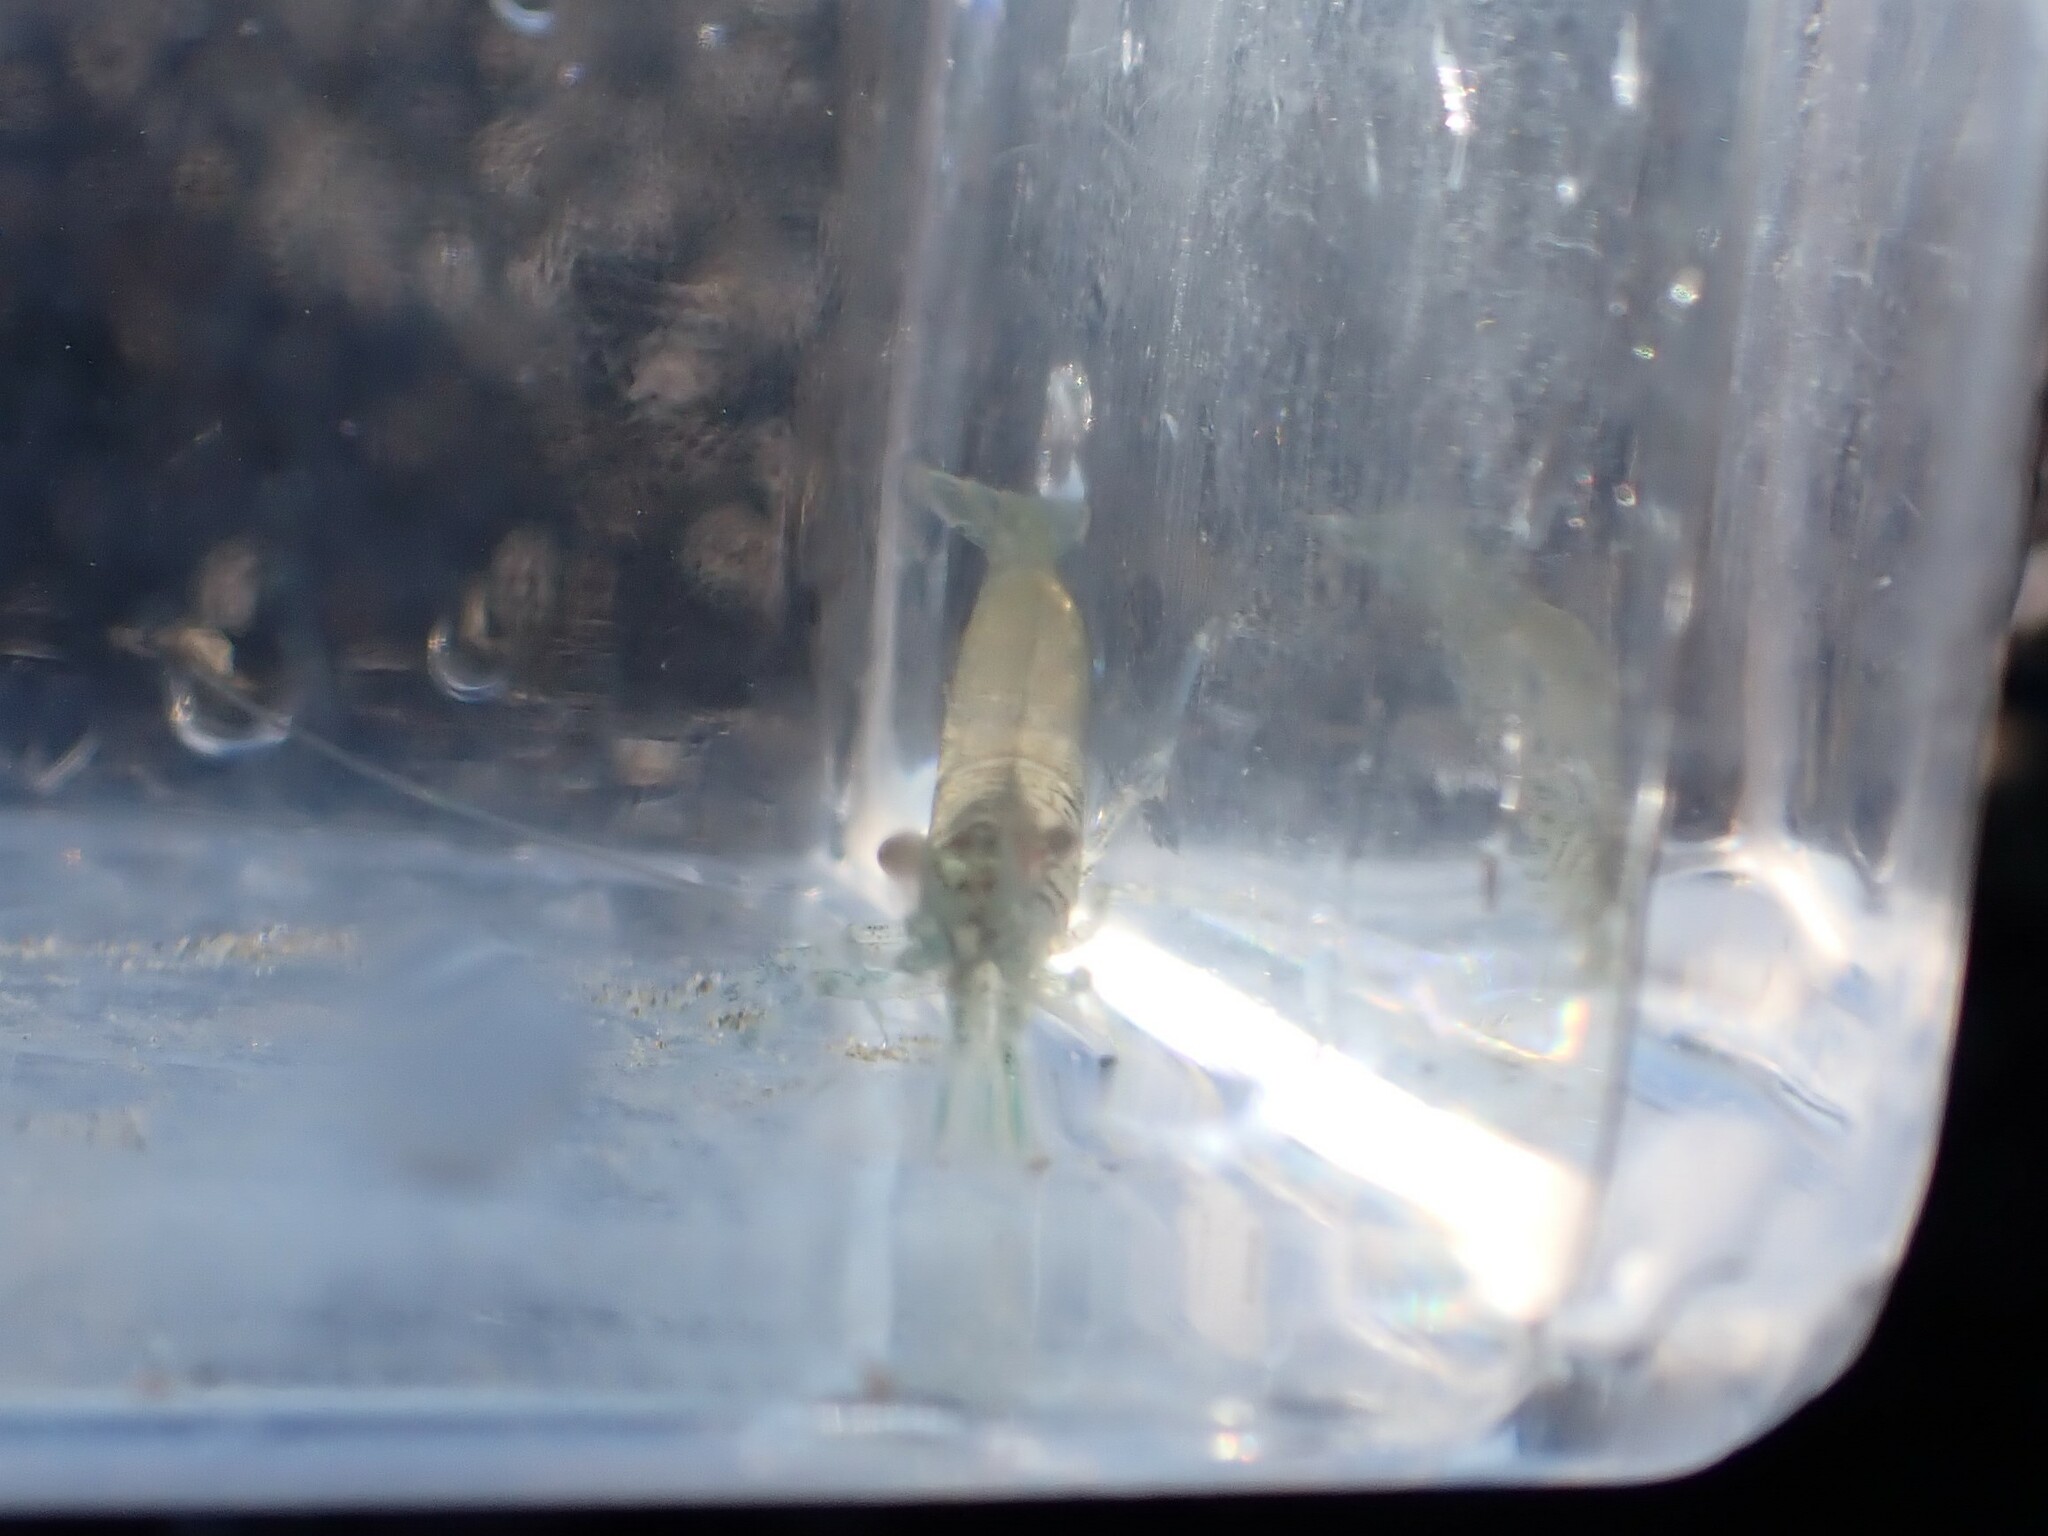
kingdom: Animalia
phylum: Arthropoda
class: Malacostraca
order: Decapoda
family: Thoridae
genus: Heptacarpus
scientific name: Heptacarpus sitchensis
